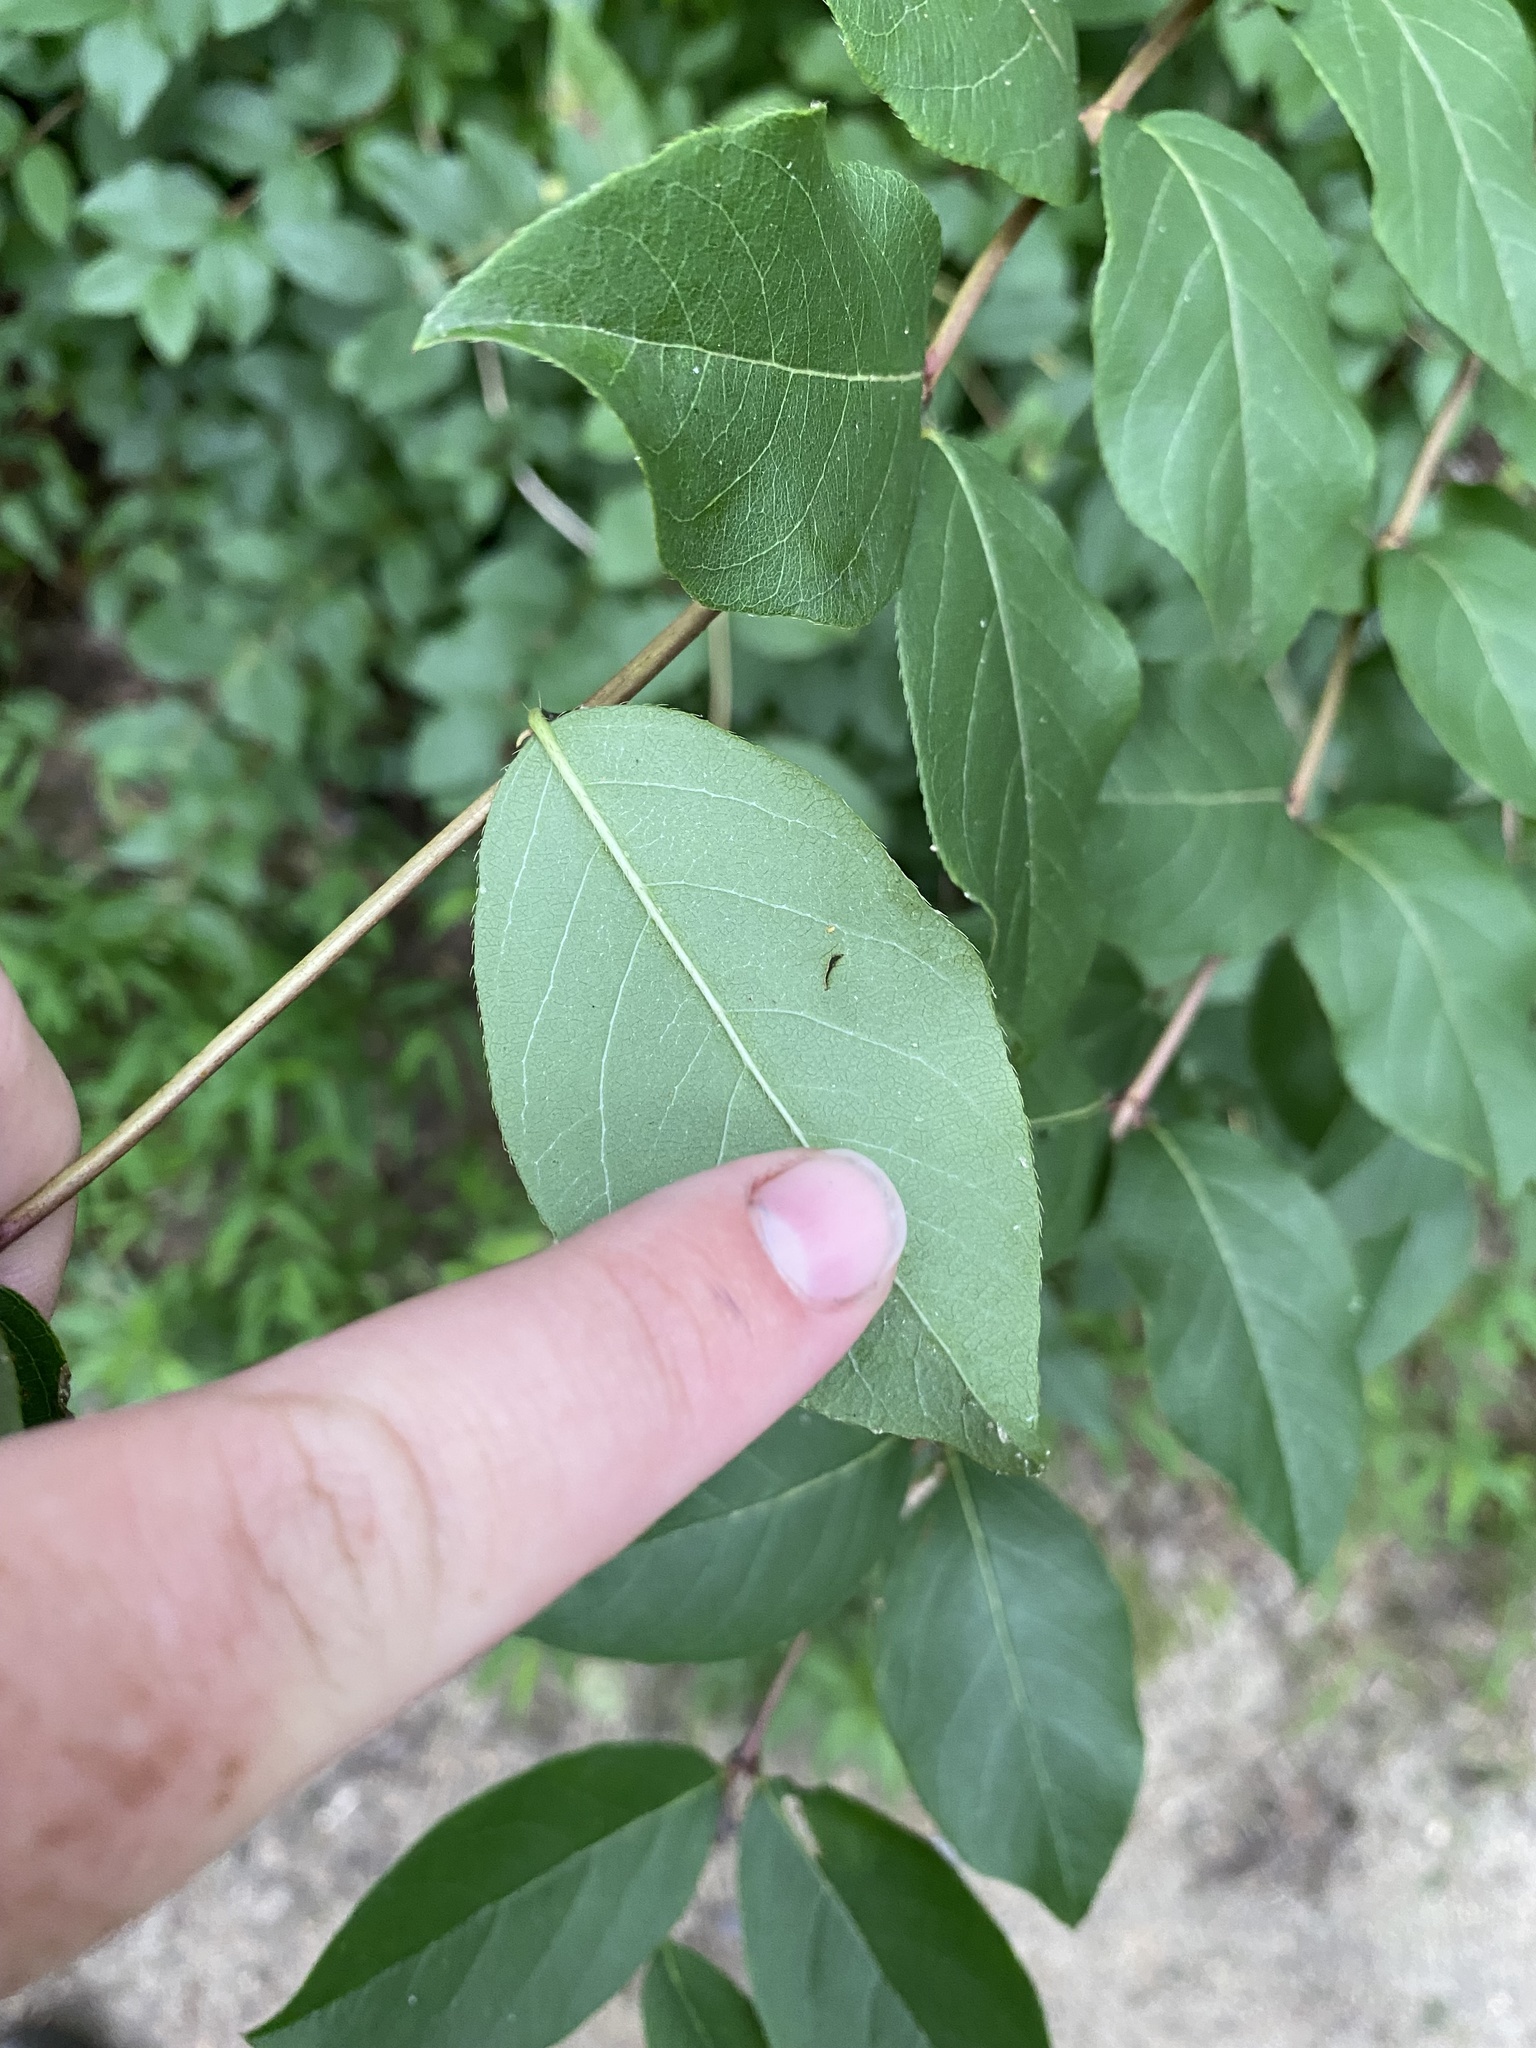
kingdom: Plantae
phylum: Tracheophyta
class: Magnoliopsida
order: Dipsacales
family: Caprifoliaceae
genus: Lonicera
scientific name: Lonicera fragrantissima
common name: Fragrant honeysuckle
